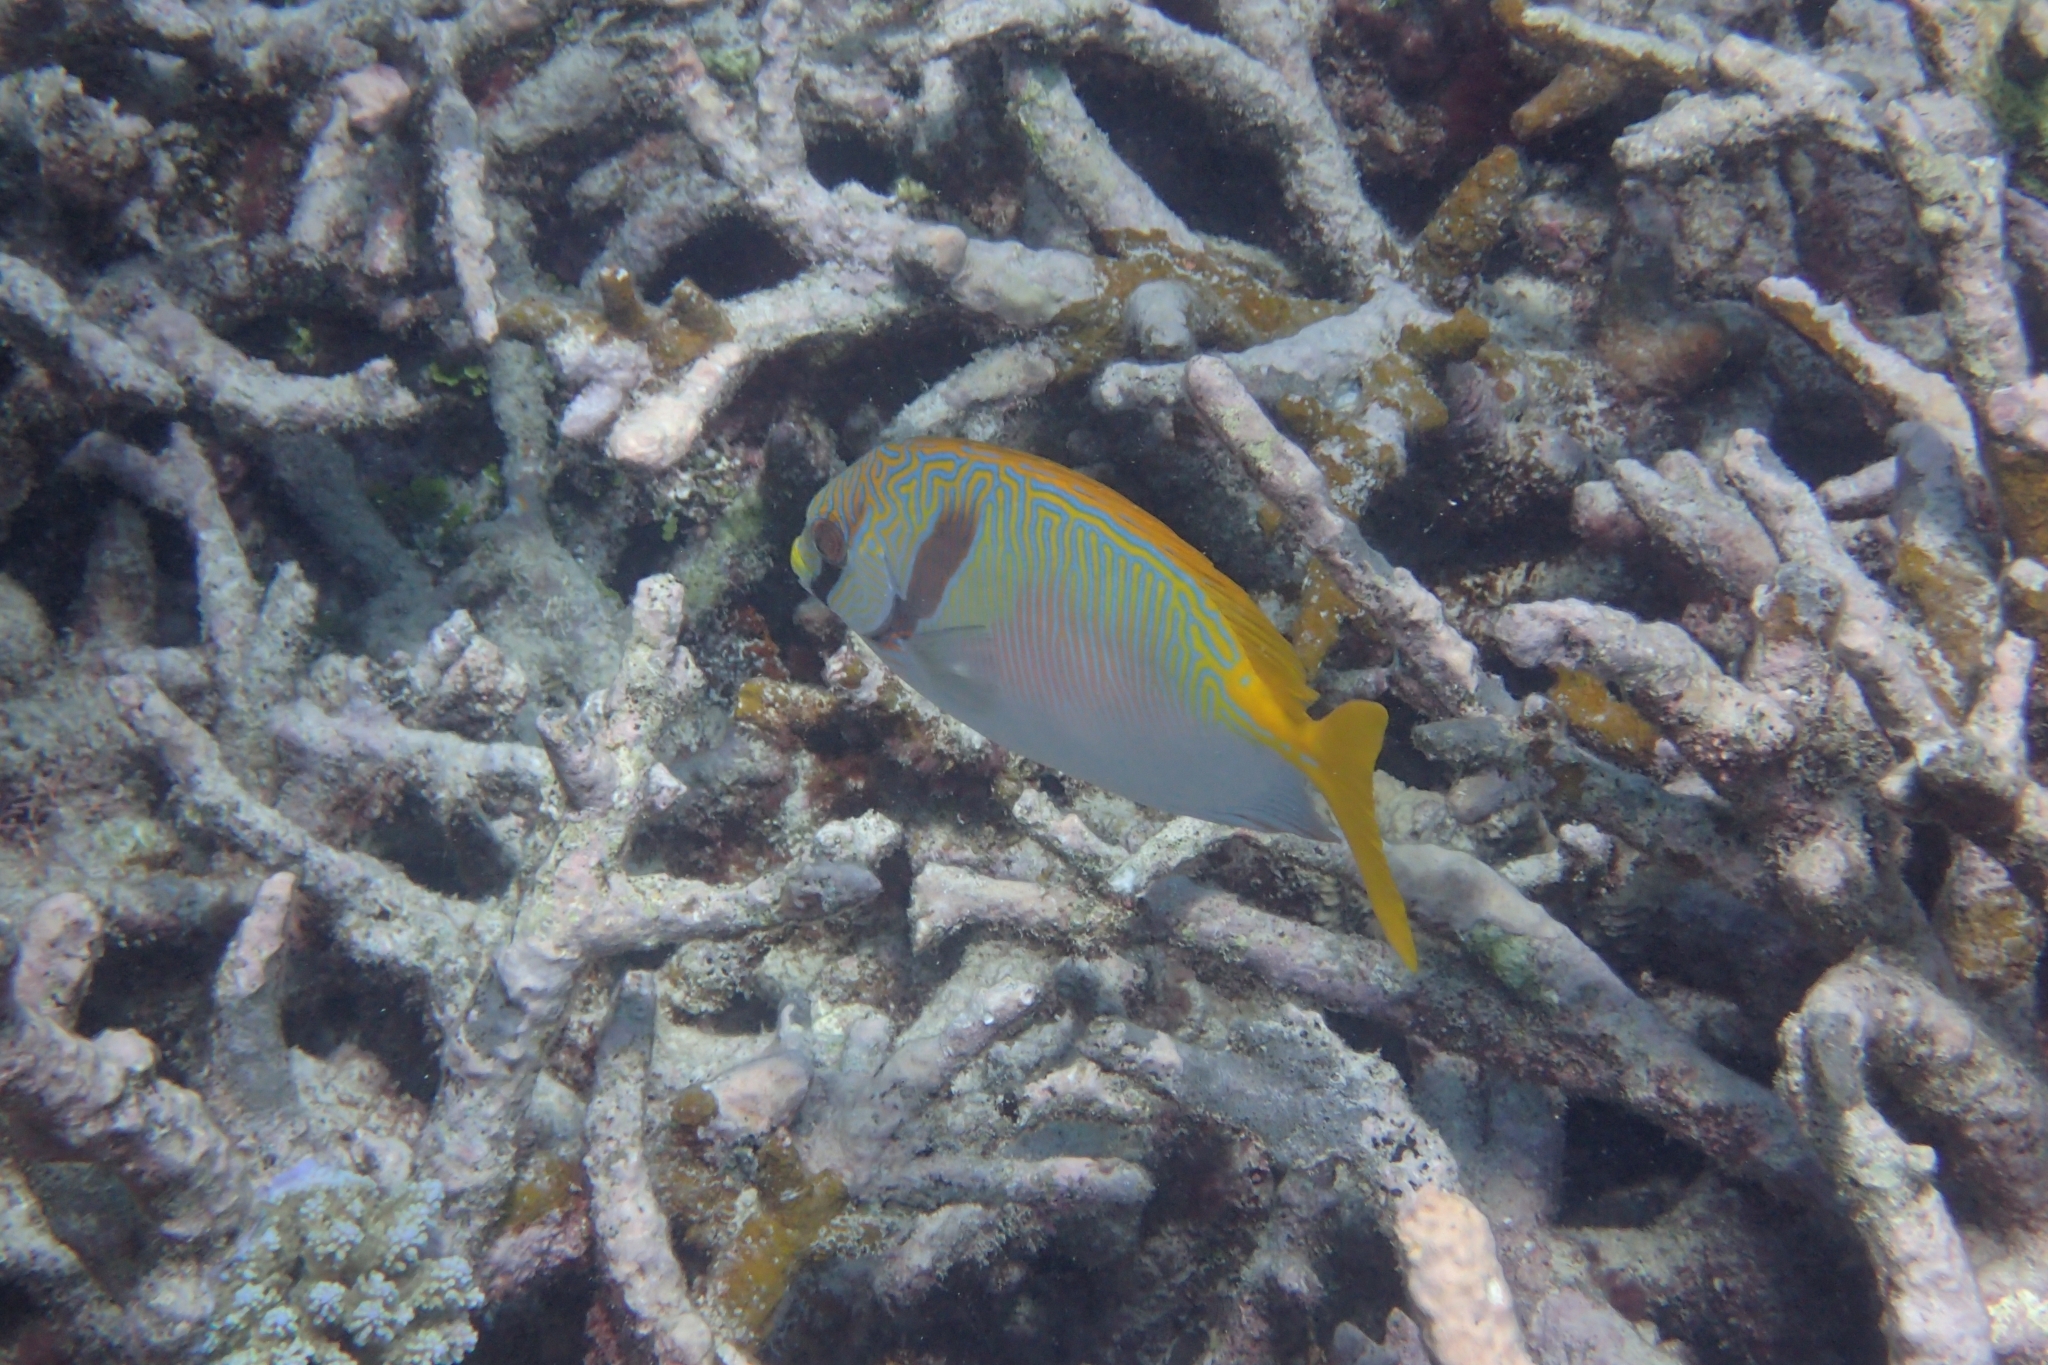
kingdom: Animalia
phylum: Chordata
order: Perciformes
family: Siganidae
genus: Siganus
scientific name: Siganus doliatus
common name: Barred spinefoot
